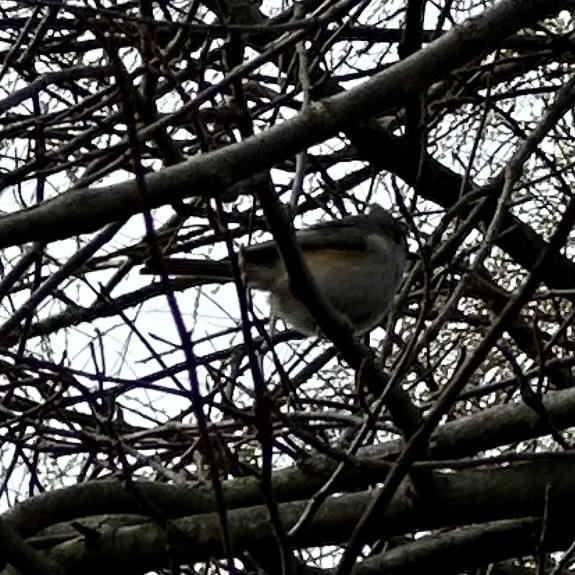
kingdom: Animalia
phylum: Chordata
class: Aves
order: Passeriformes
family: Paridae
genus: Baeolophus
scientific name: Baeolophus bicolor
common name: Tufted titmouse
